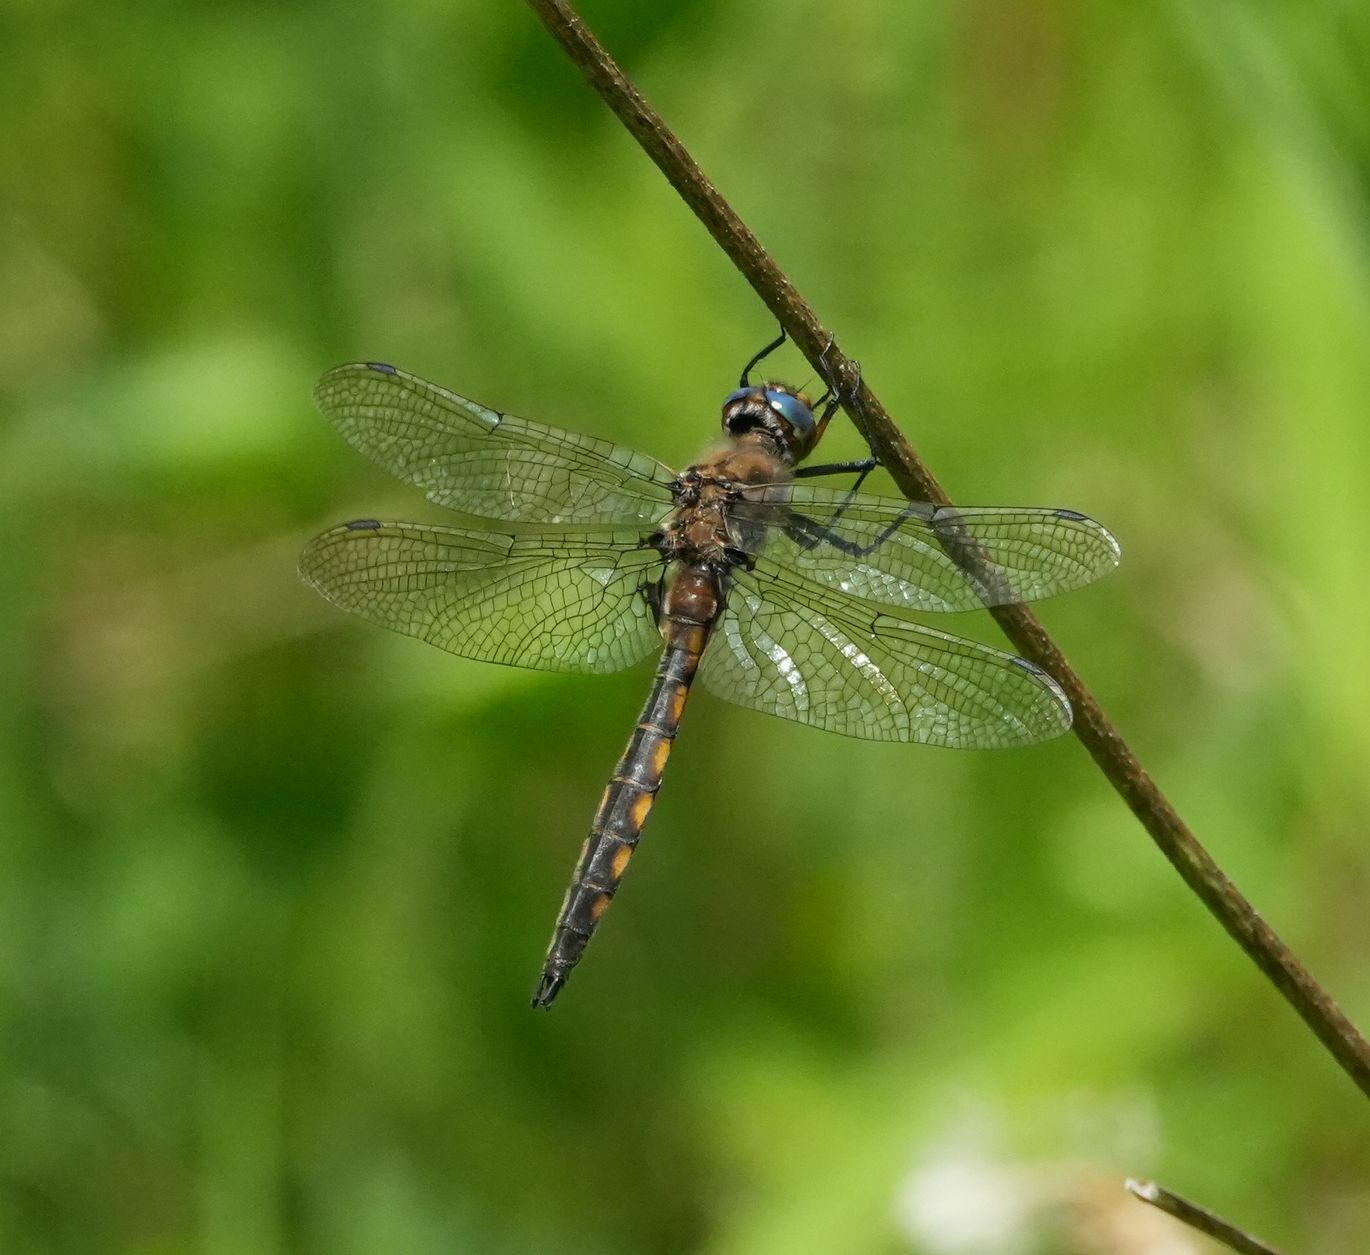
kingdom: Animalia
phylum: Arthropoda
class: Insecta
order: Odonata
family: Corduliidae
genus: Epitheca
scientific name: Epitheca canis
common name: Beaverpond baskettail
